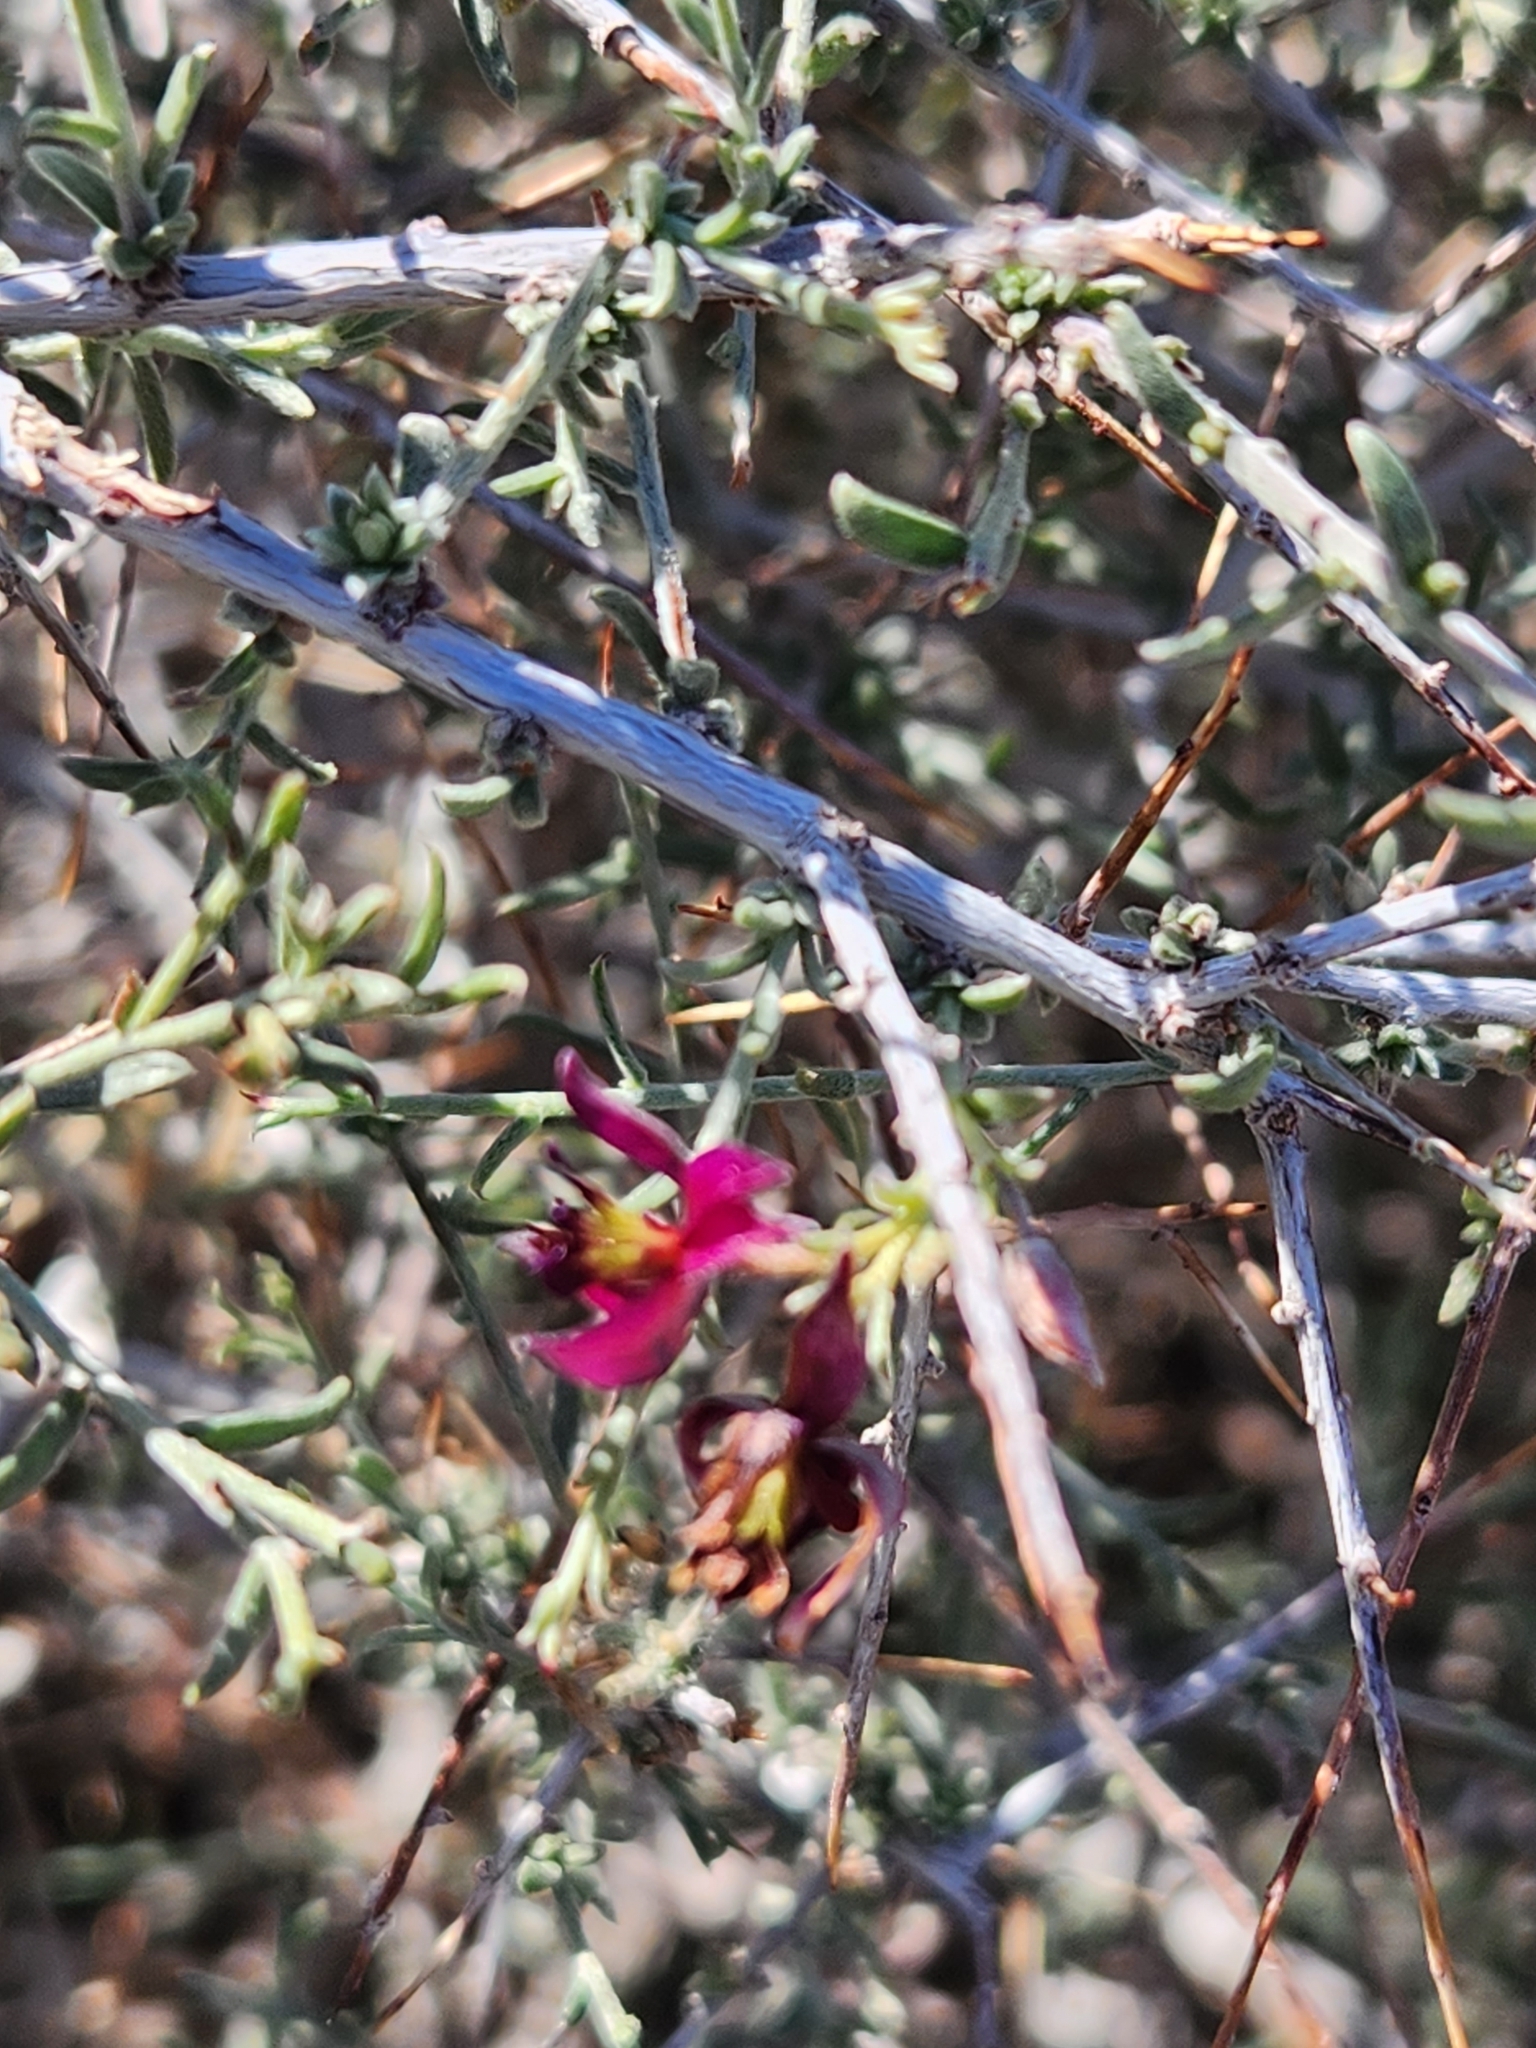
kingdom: Plantae
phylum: Tracheophyta
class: Magnoliopsida
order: Zygophyllales
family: Krameriaceae
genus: Krameria
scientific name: Krameria erecta
